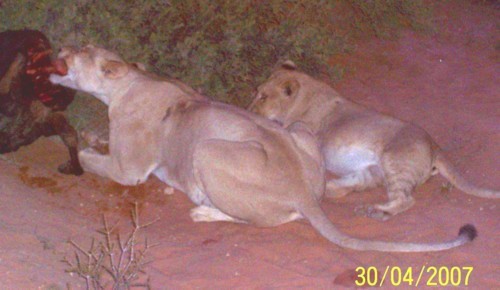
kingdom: Animalia
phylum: Chordata
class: Mammalia
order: Carnivora
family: Felidae
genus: Panthera
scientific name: Panthera leo
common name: Lion
